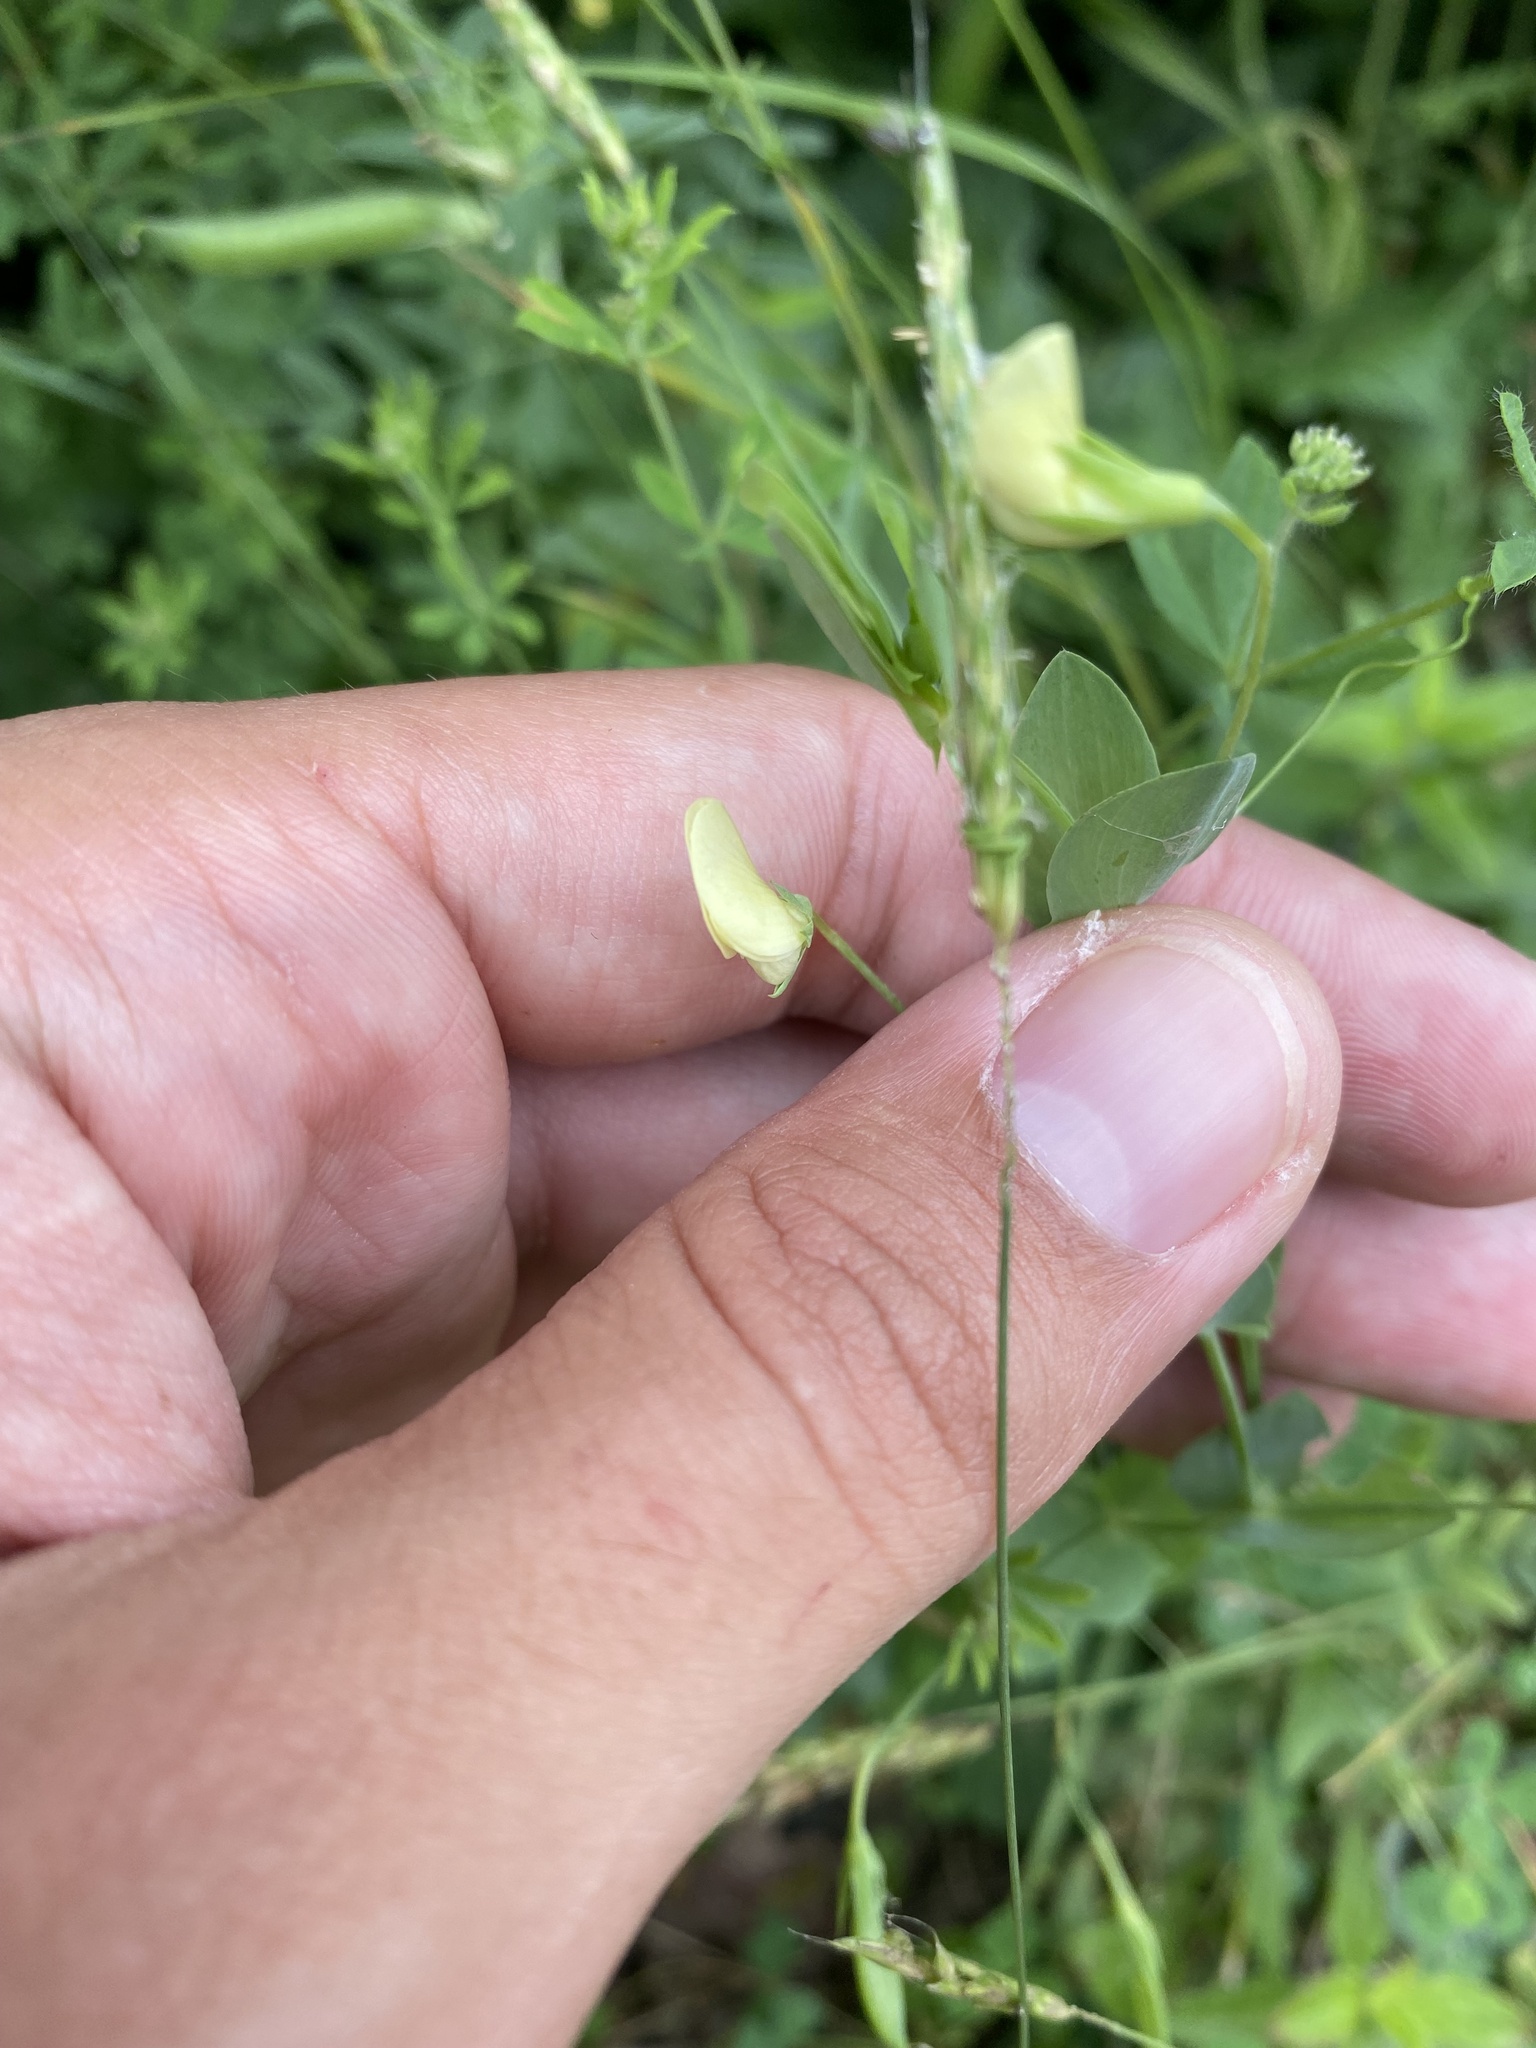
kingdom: Plantae
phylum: Tracheophyta
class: Magnoliopsida
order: Fabales
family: Fabaceae
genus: Lathyrus
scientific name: Lathyrus aphaca
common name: Yellow vetchling
